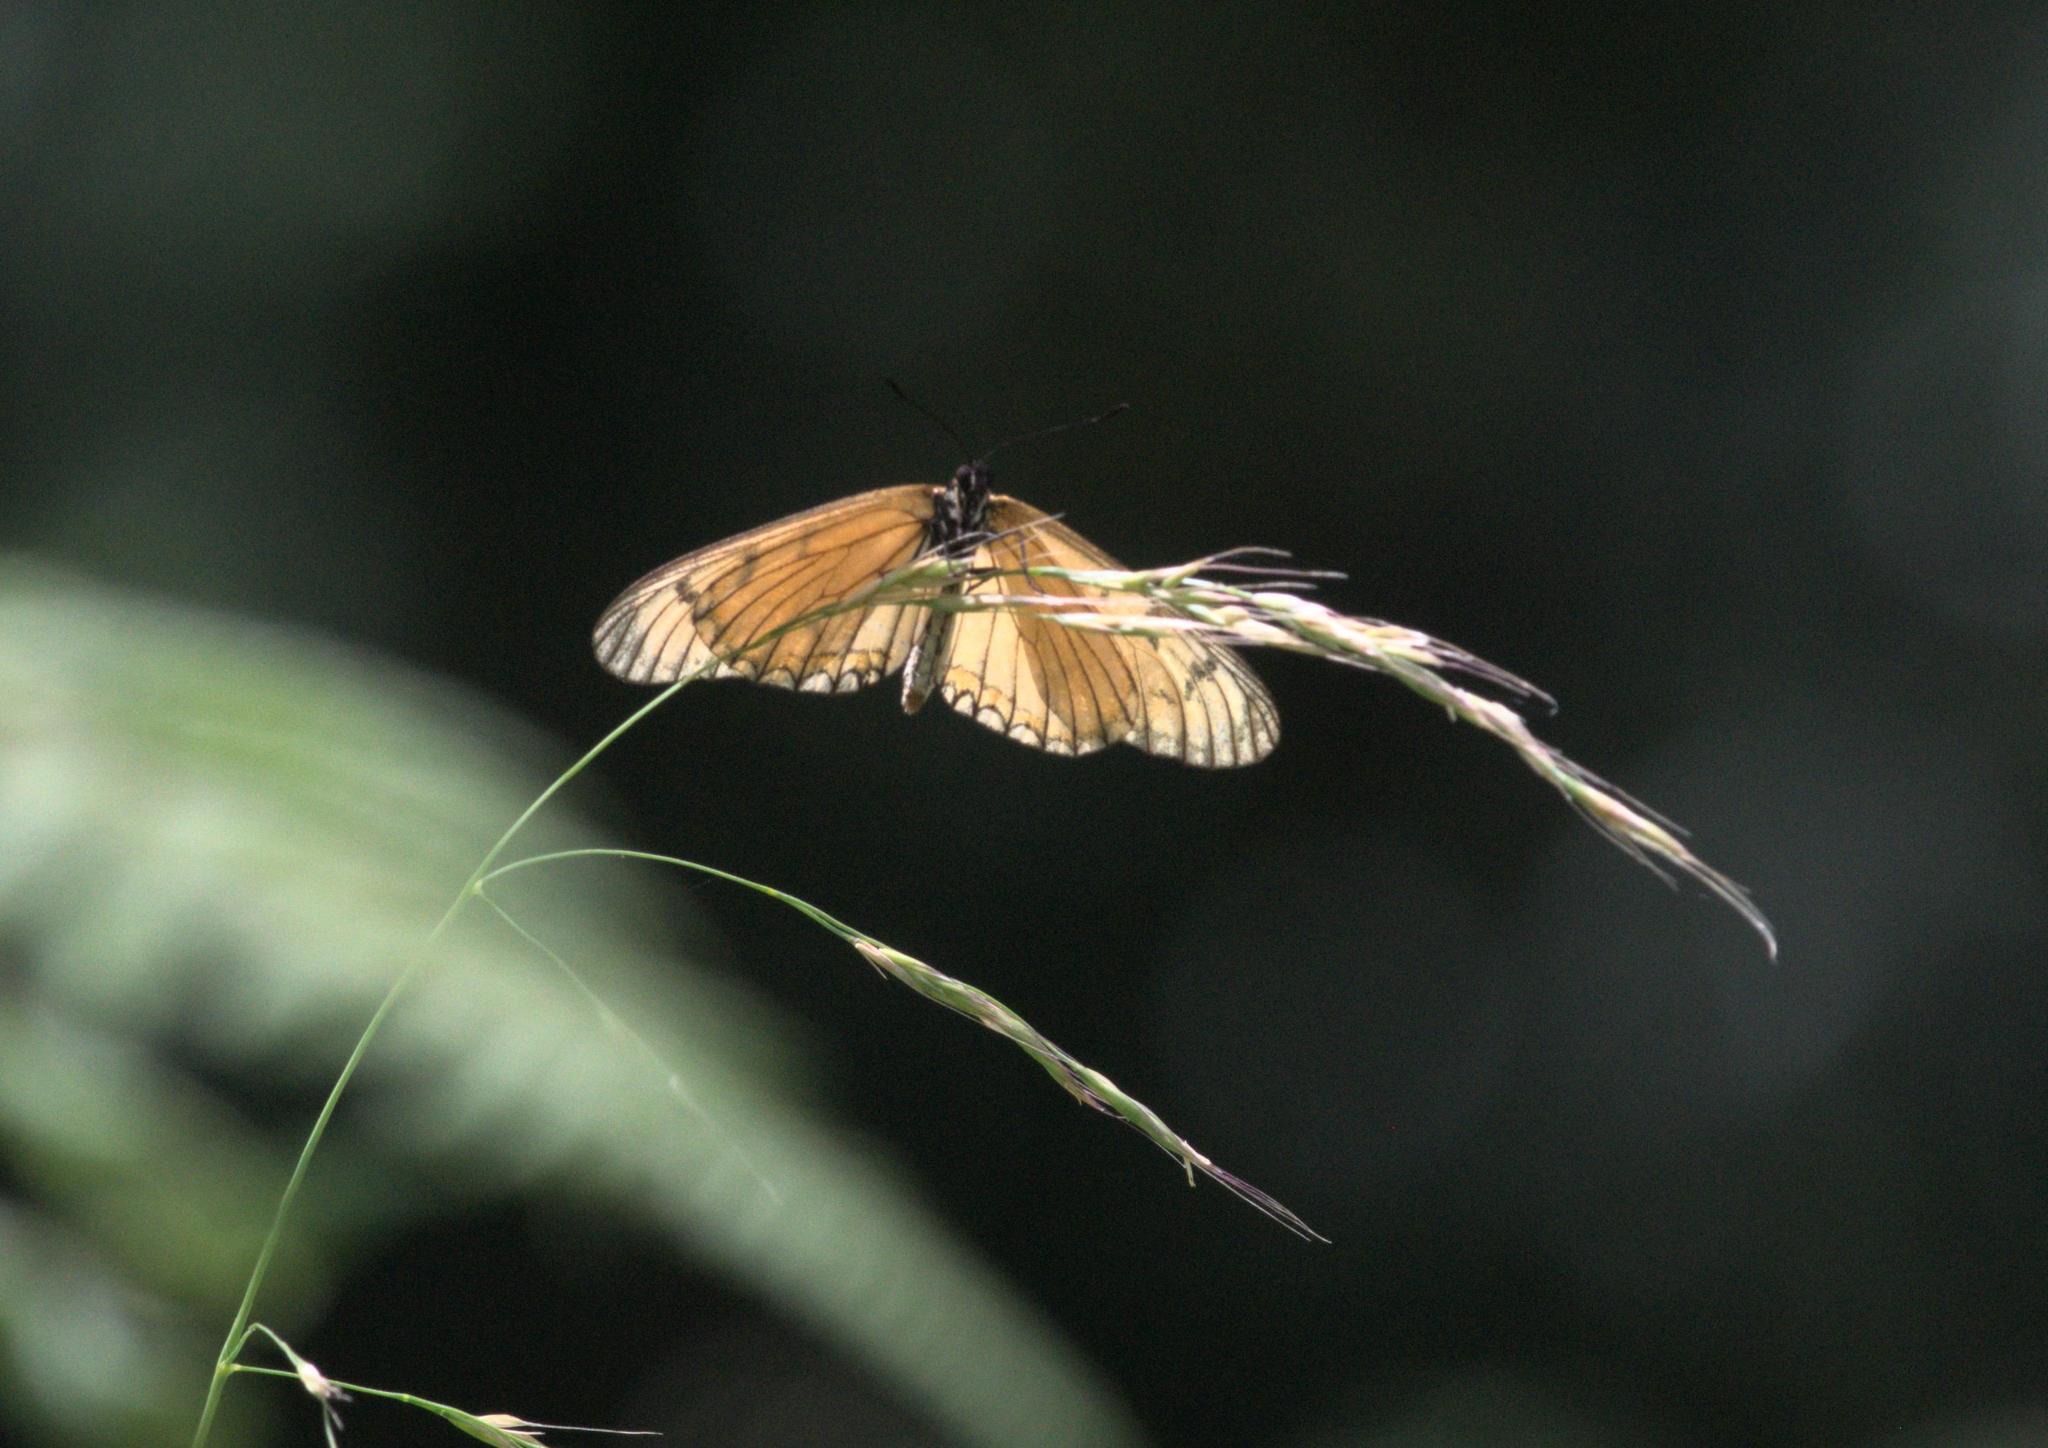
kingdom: Animalia
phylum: Arthropoda
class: Insecta
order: Lepidoptera
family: Nymphalidae
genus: Acraea
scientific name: Acraea Telchinia issoria
